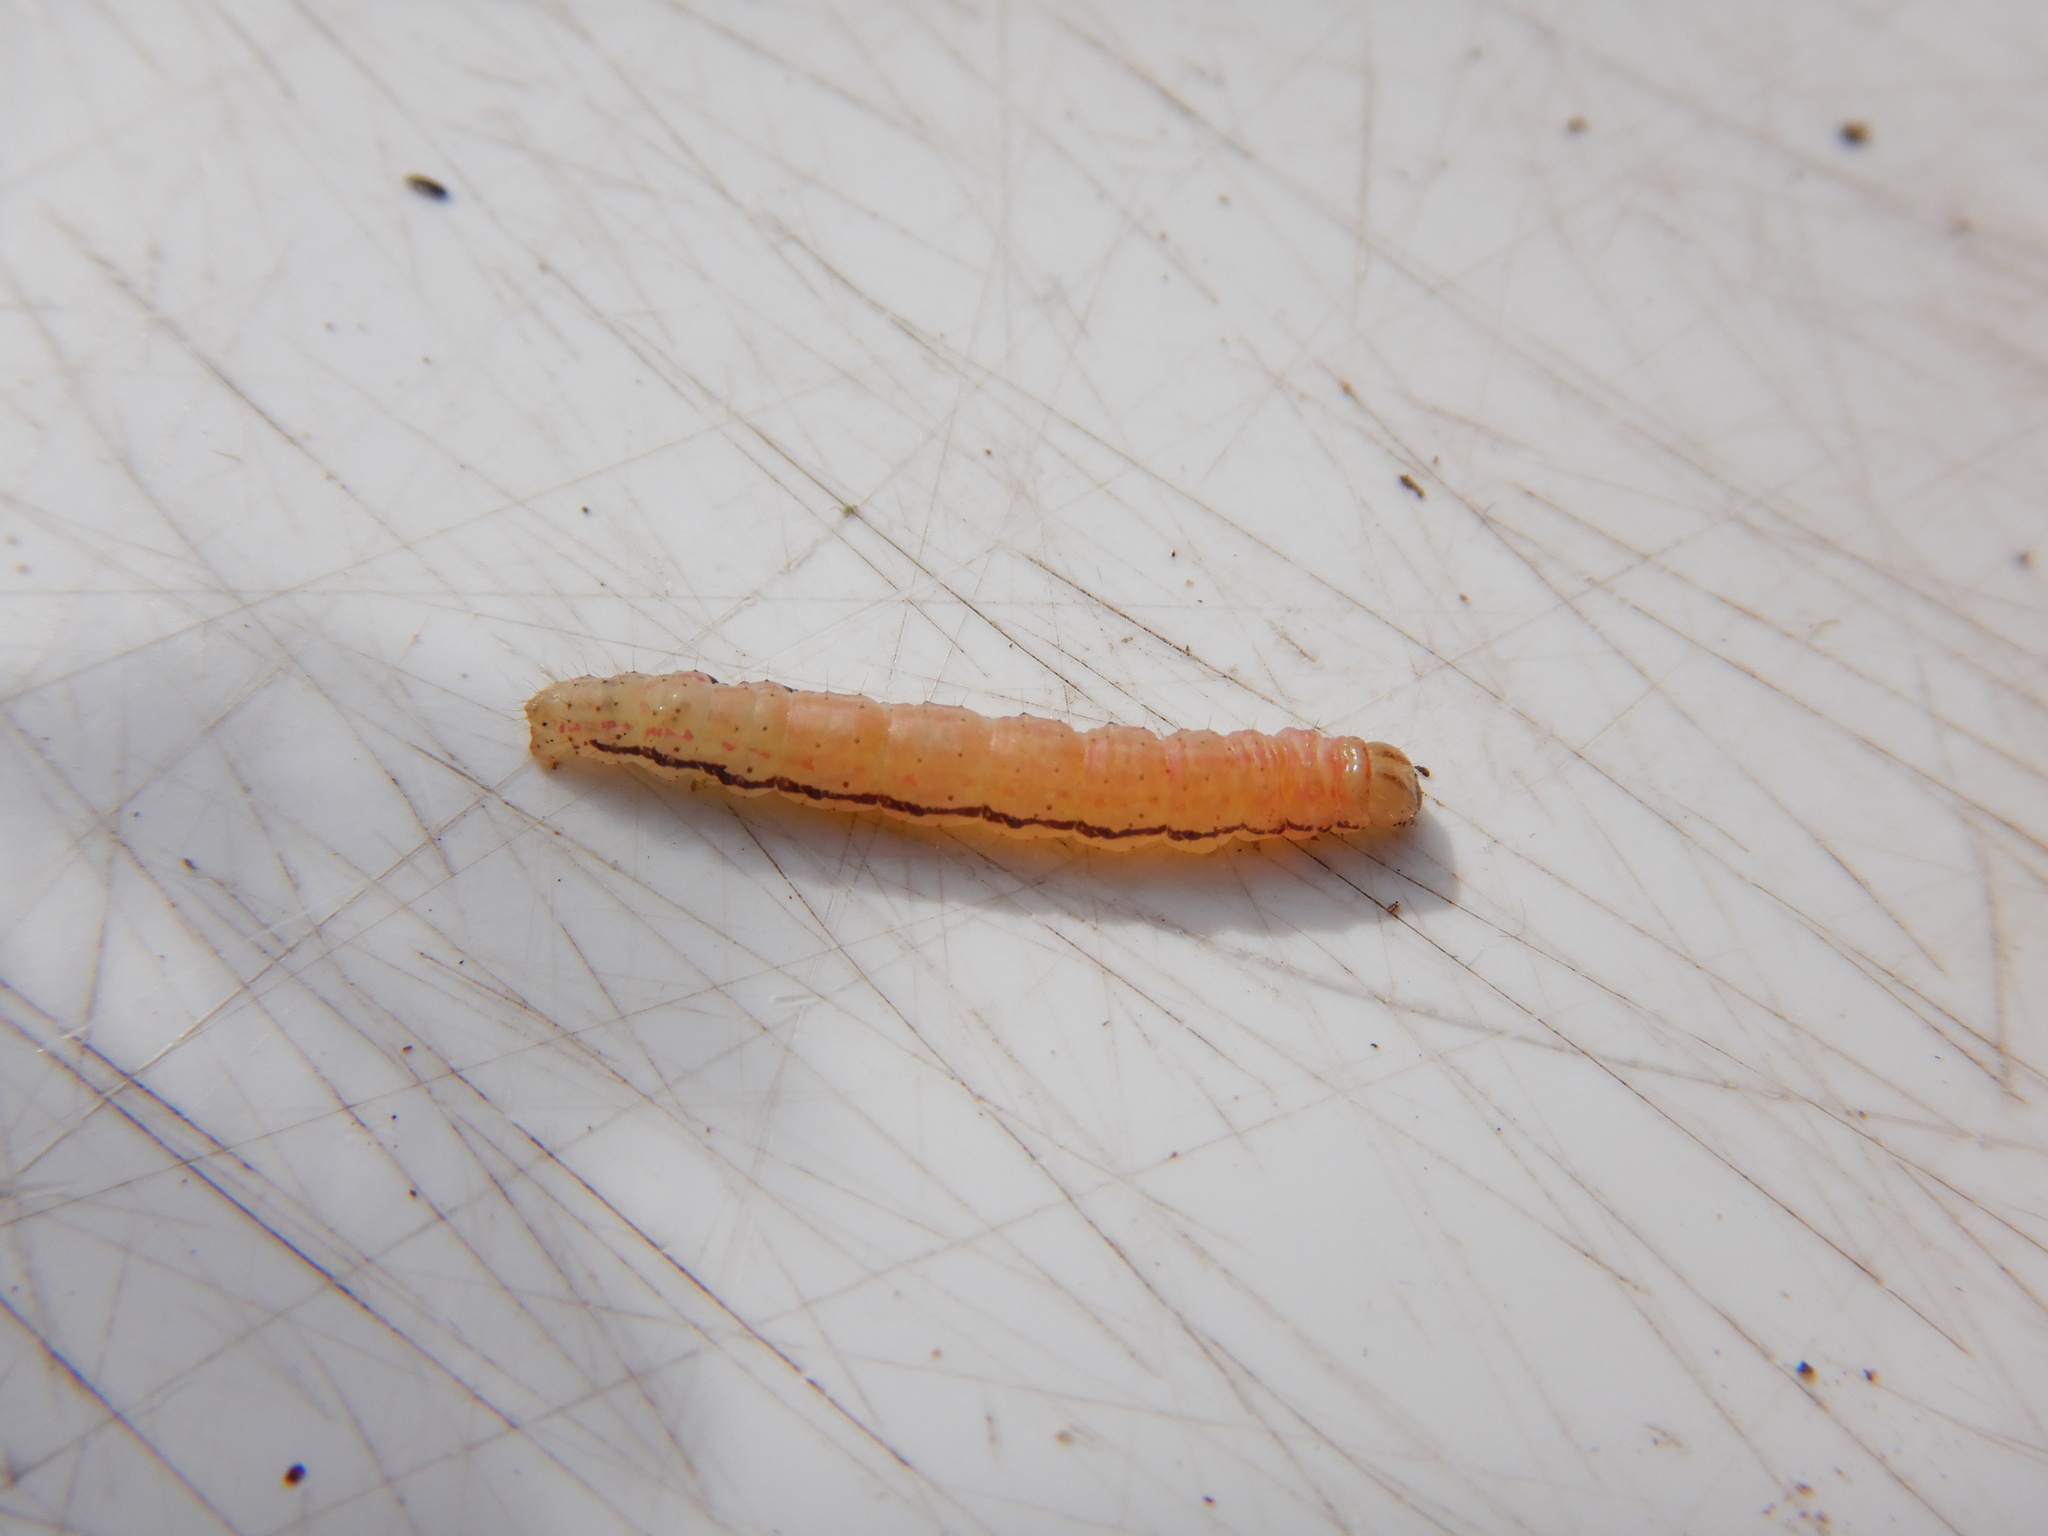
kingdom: Animalia
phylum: Arthropoda
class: Insecta
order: Lepidoptera
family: Geometridae
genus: Epiphryne
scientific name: Epiphryne verriculata
